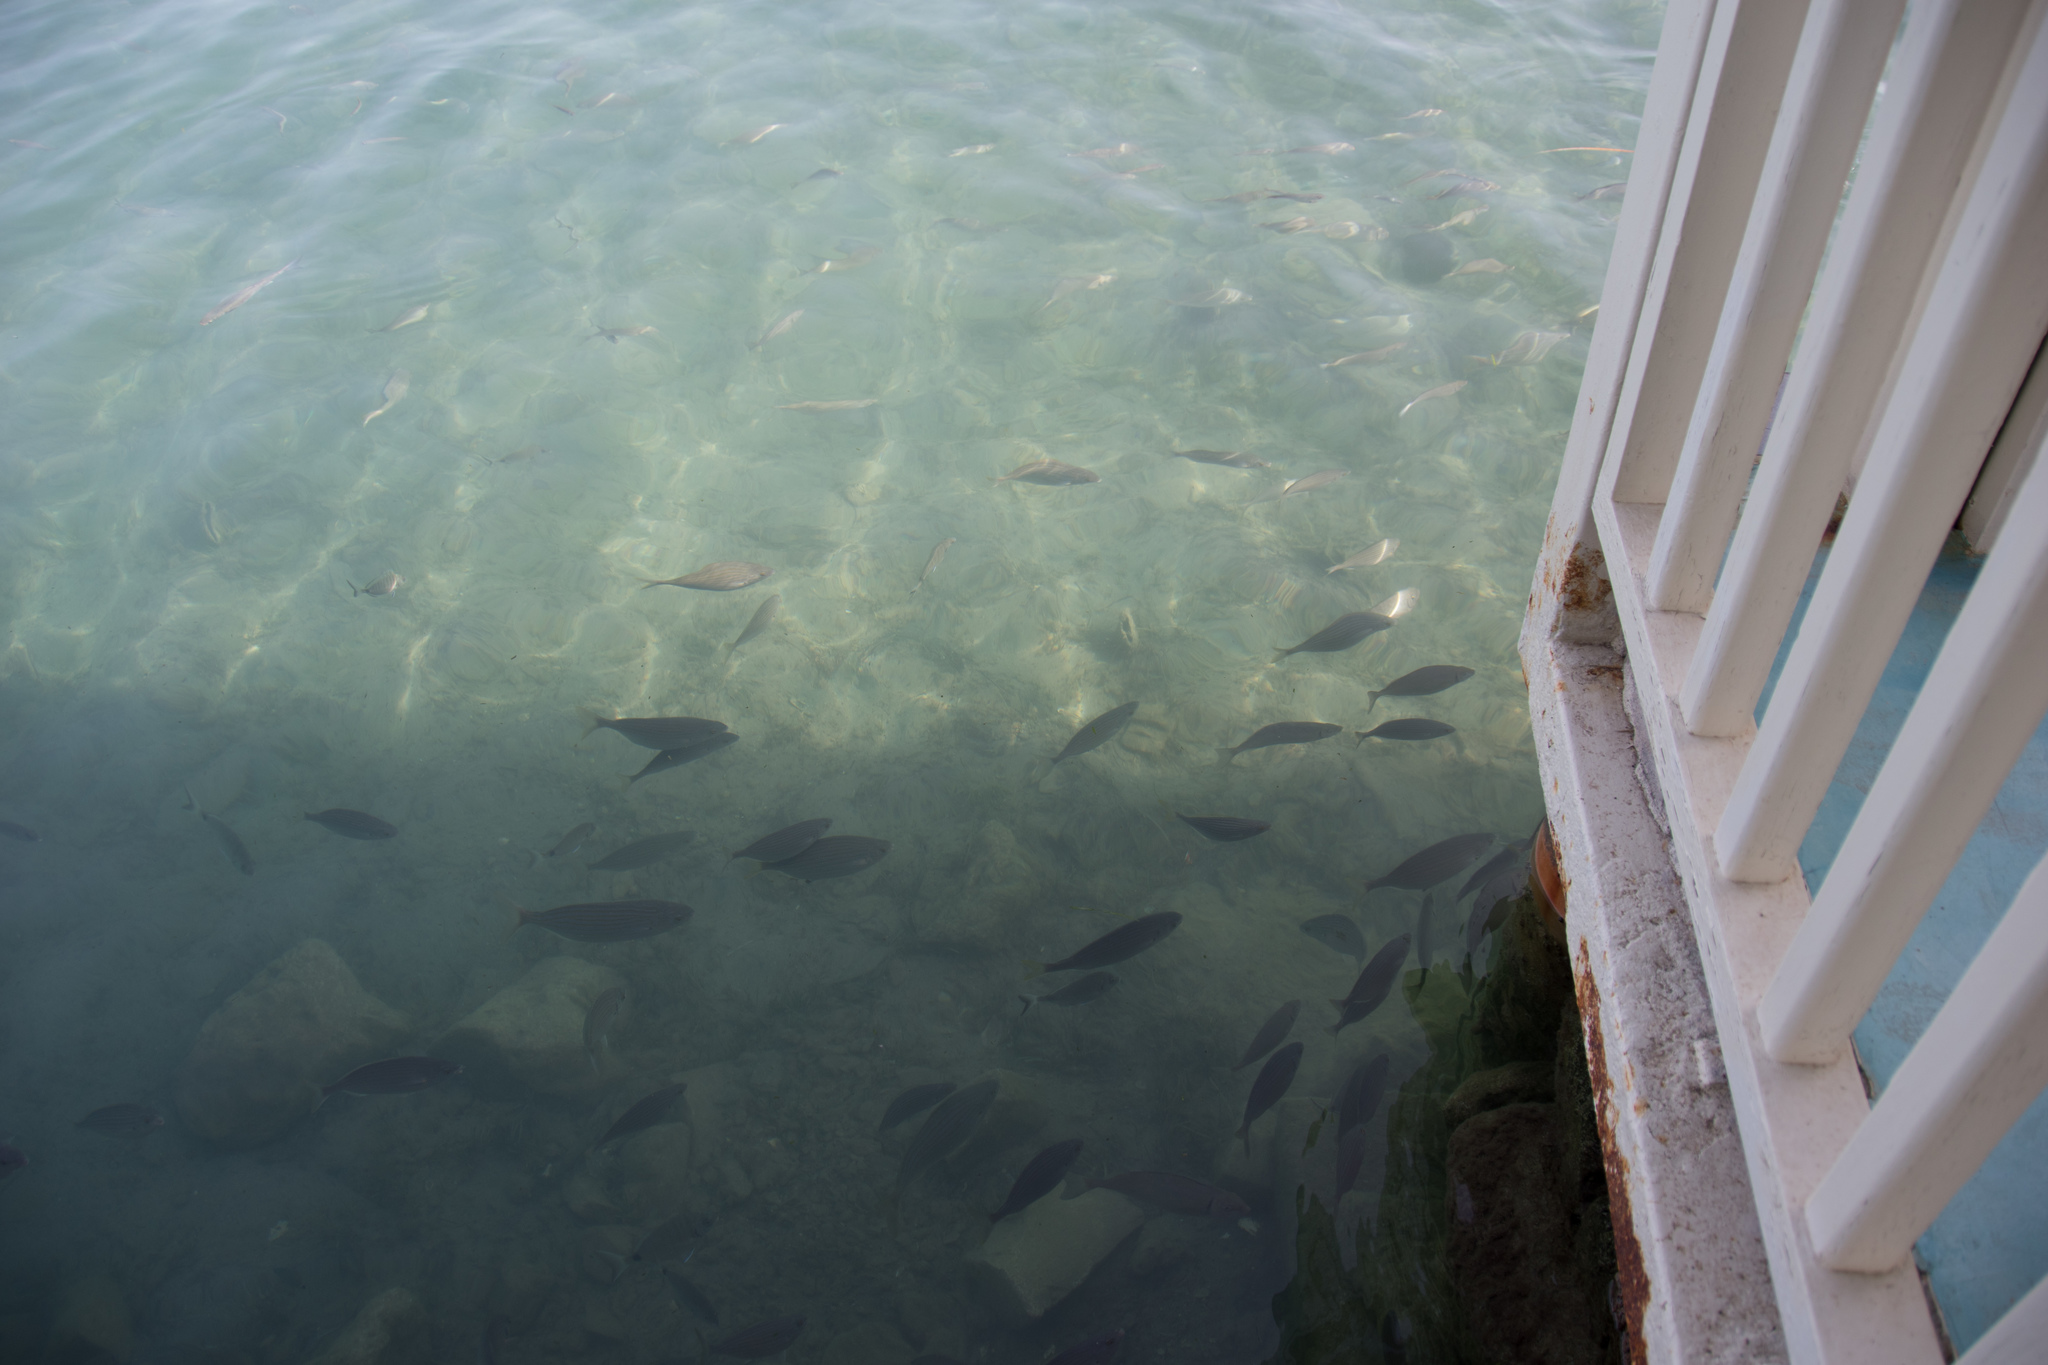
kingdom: Animalia
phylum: Chordata
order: Perciformes
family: Sparidae
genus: Sarpa
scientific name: Sarpa salpa
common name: Salema
